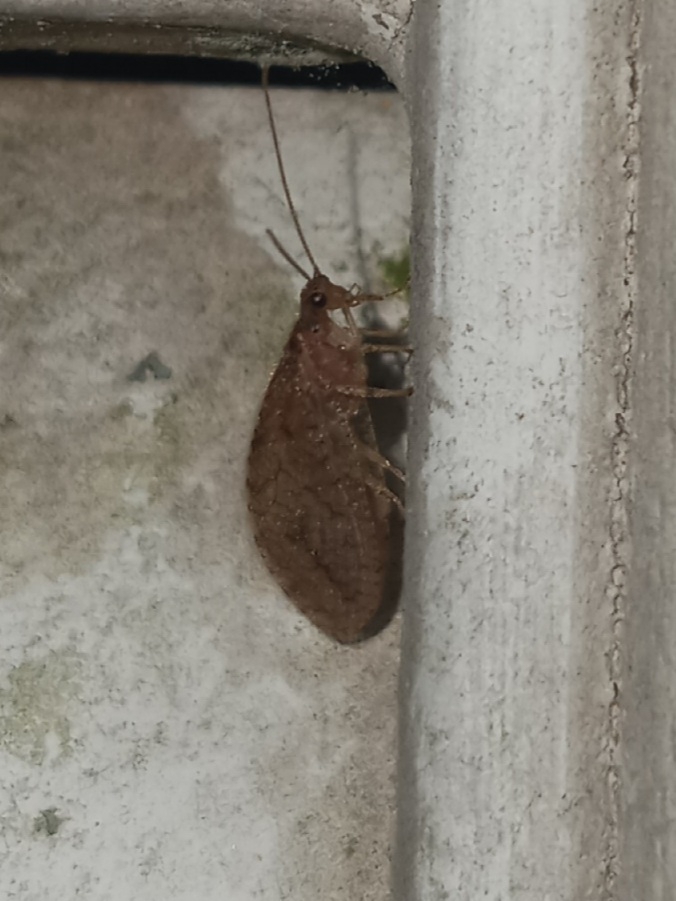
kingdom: Animalia
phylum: Arthropoda
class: Insecta
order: Neuroptera
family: Hemerobiidae
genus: Micromus
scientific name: Micromus posticus
